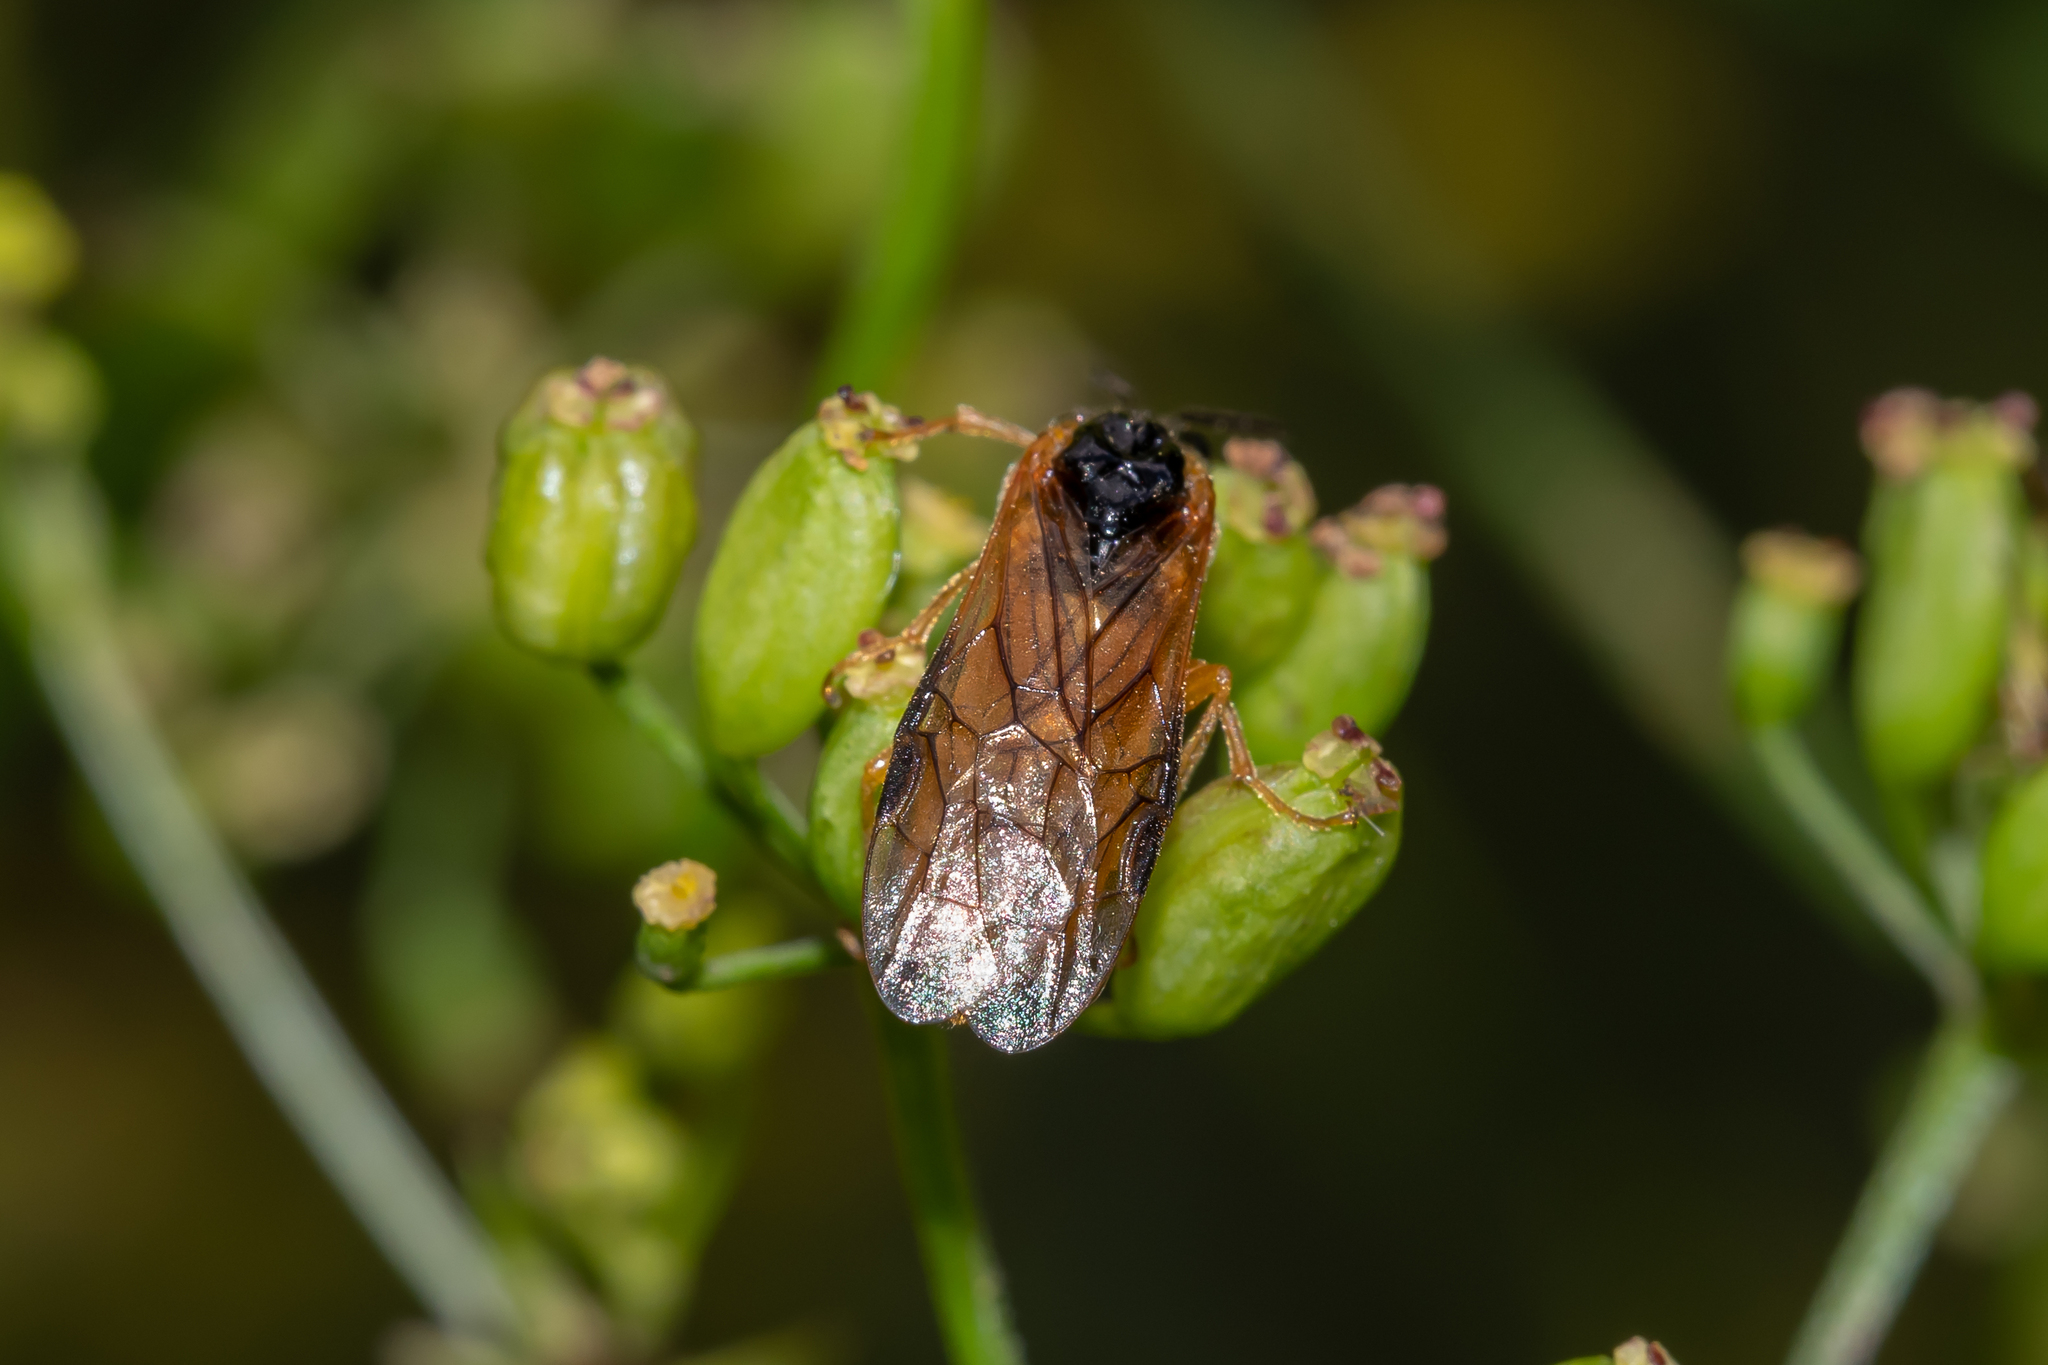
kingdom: Animalia
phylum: Arthropoda
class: Insecta
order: Hymenoptera
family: Tenthredinidae
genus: Selandria
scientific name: Selandria serva
